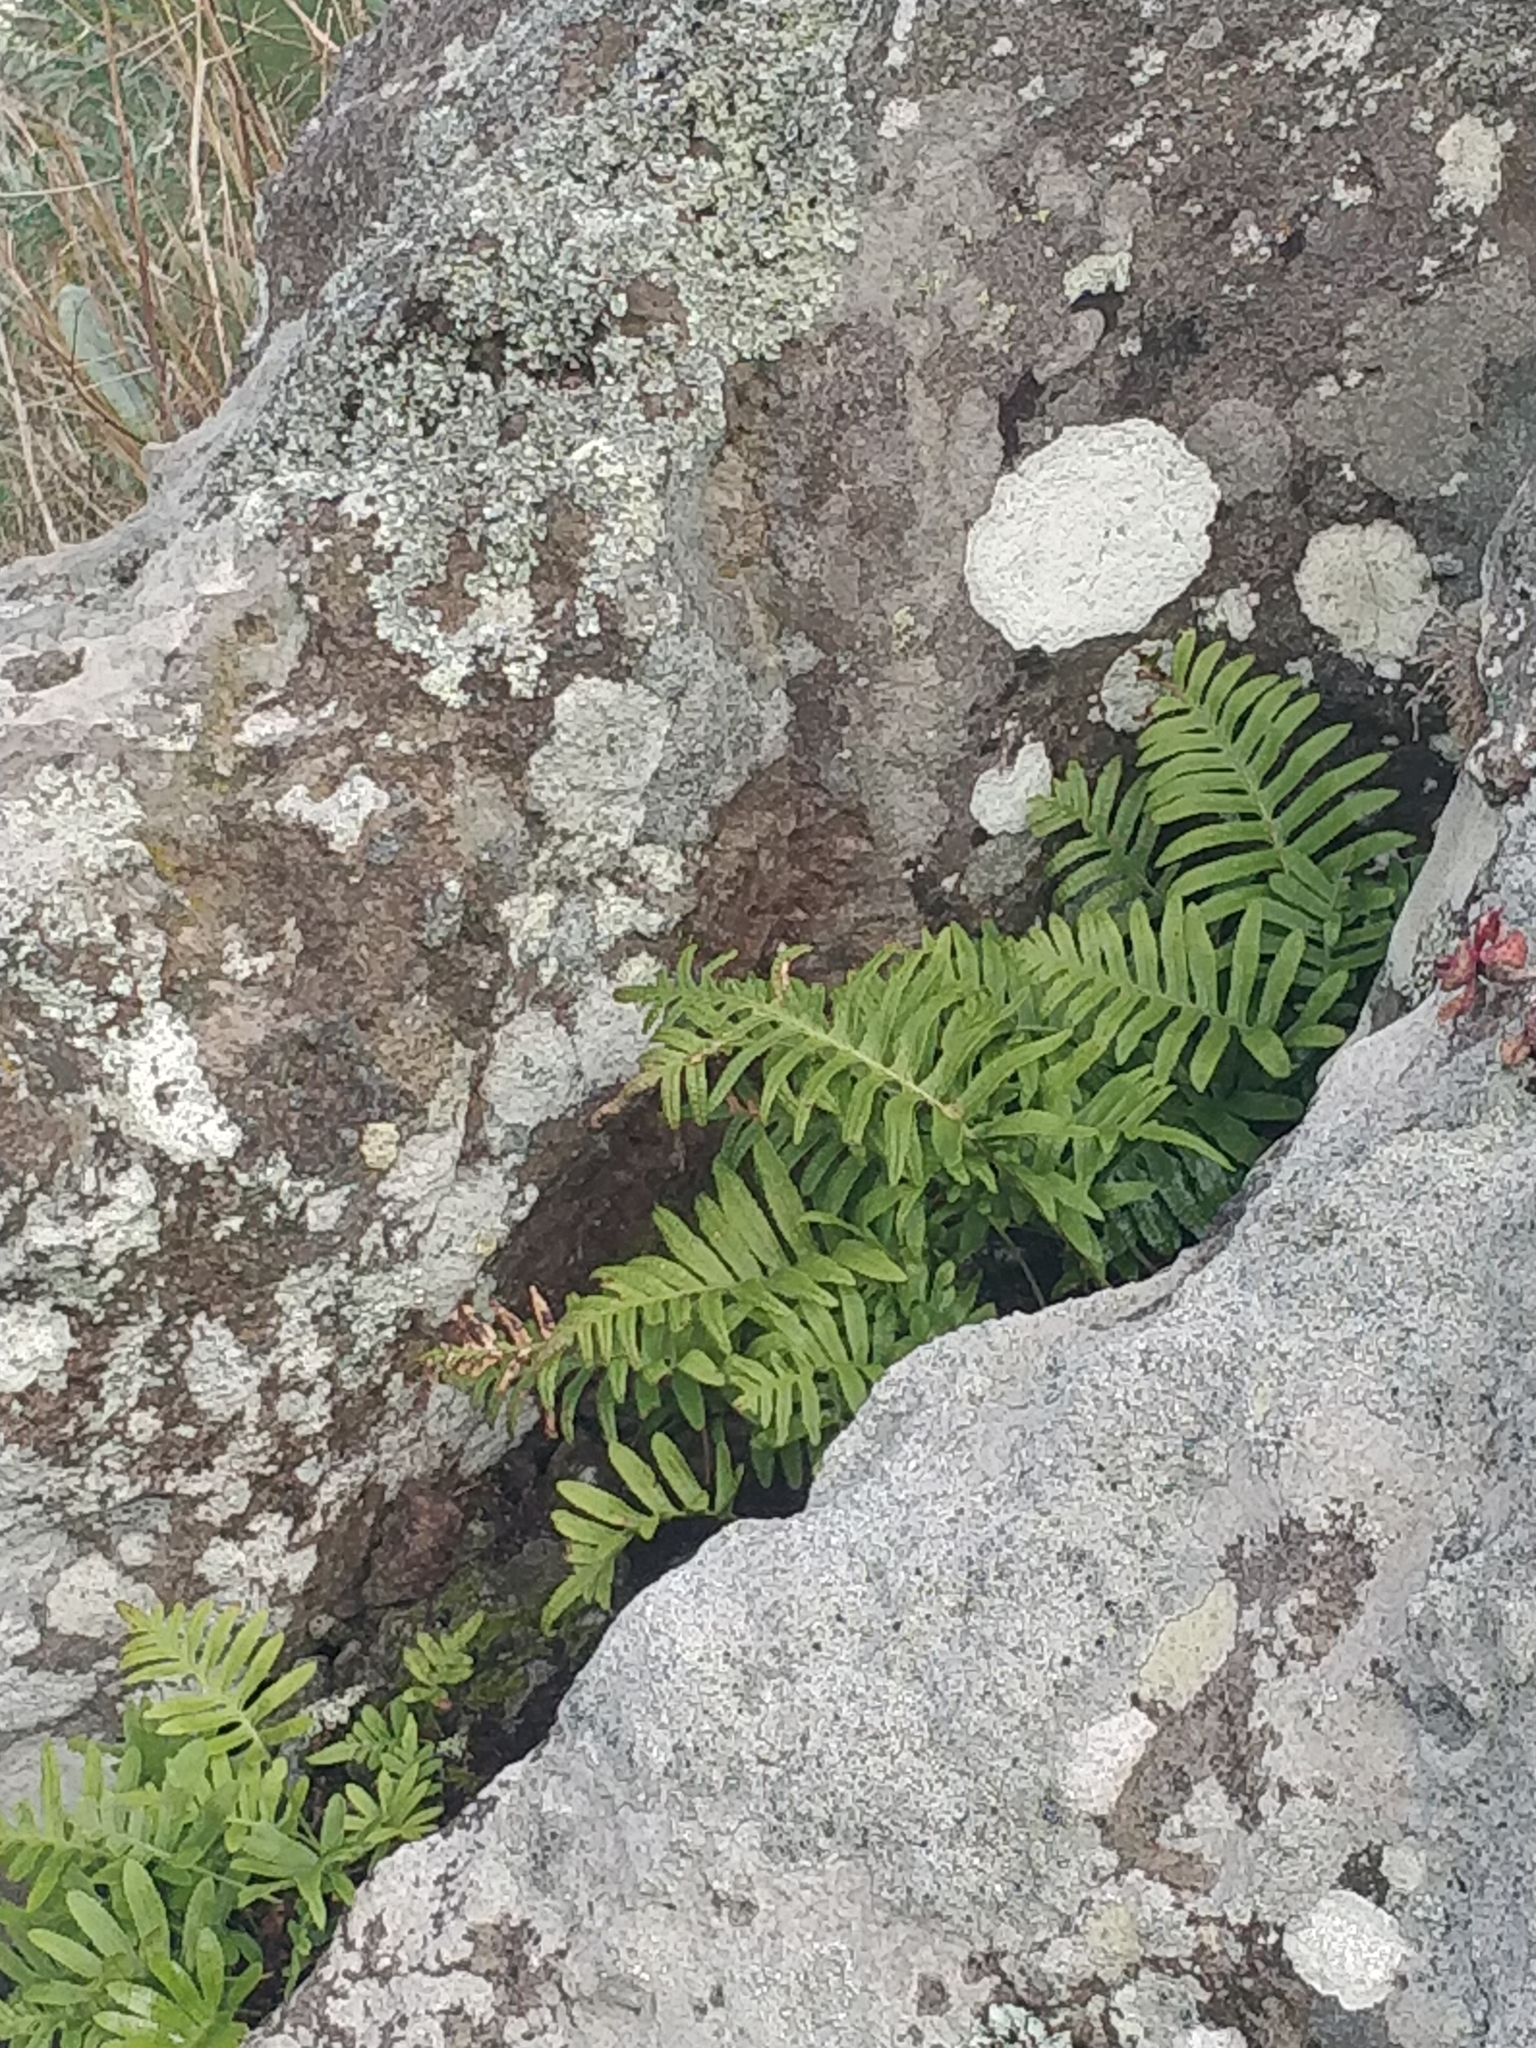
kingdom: Plantae
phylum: Tracheophyta
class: Polypodiopsida
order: Polypodiales
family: Polypodiaceae
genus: Polypodium
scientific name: Polypodium macaronesicum
